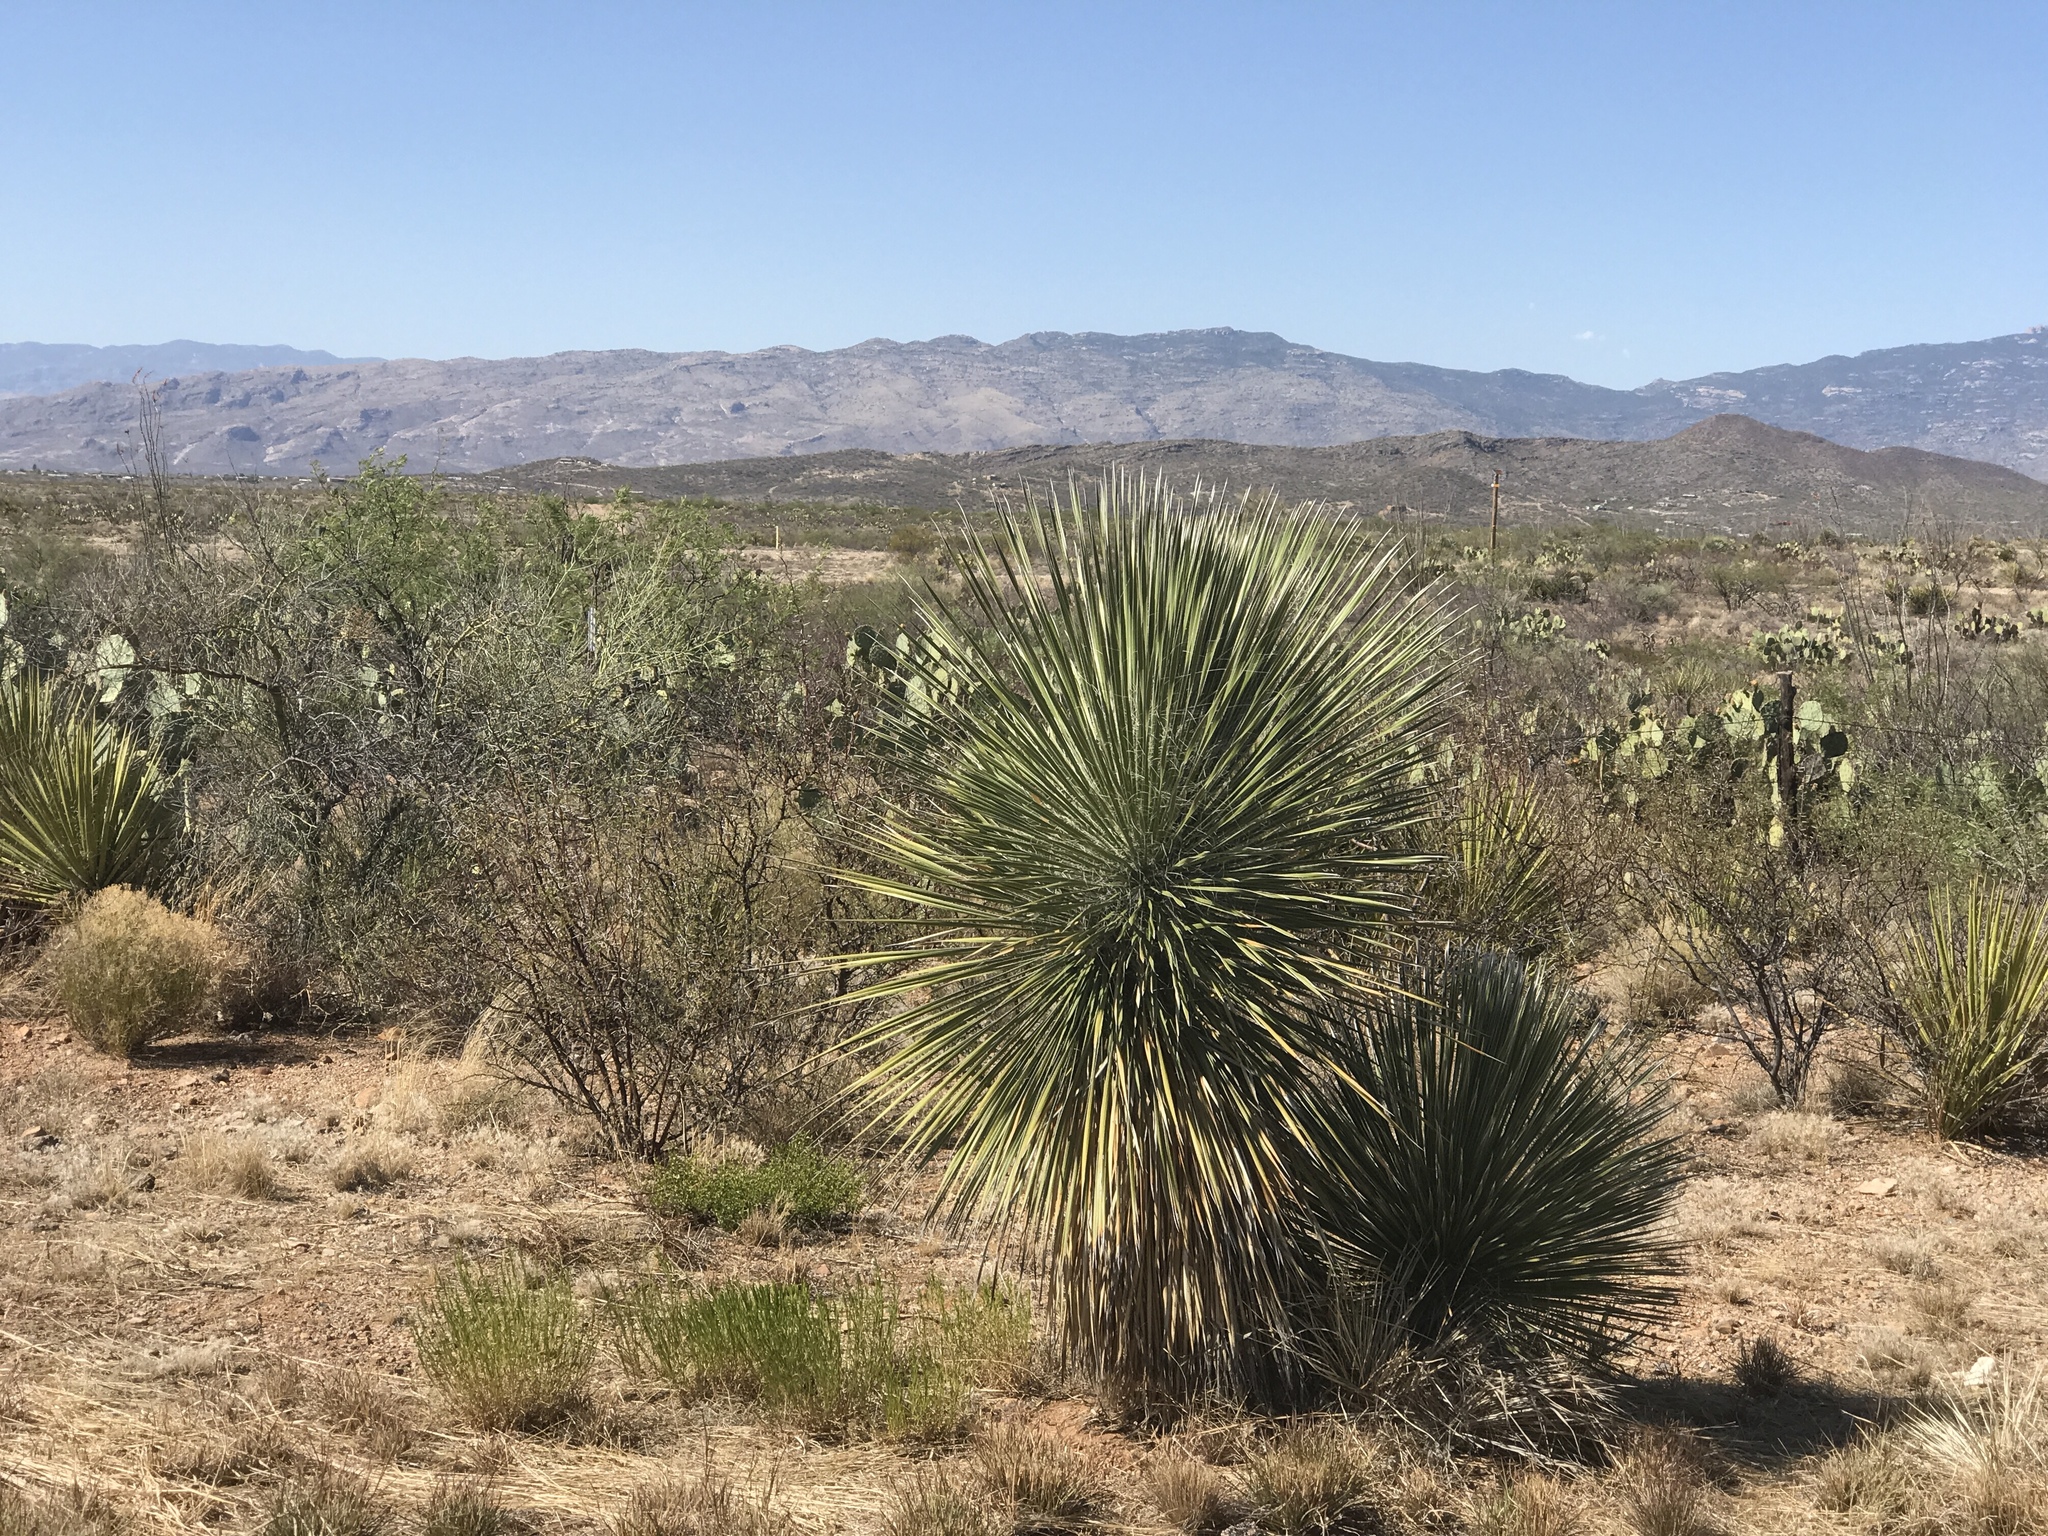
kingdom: Plantae
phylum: Tracheophyta
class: Liliopsida
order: Asparagales
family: Asparagaceae
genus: Yucca
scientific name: Yucca elata
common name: Palmella
